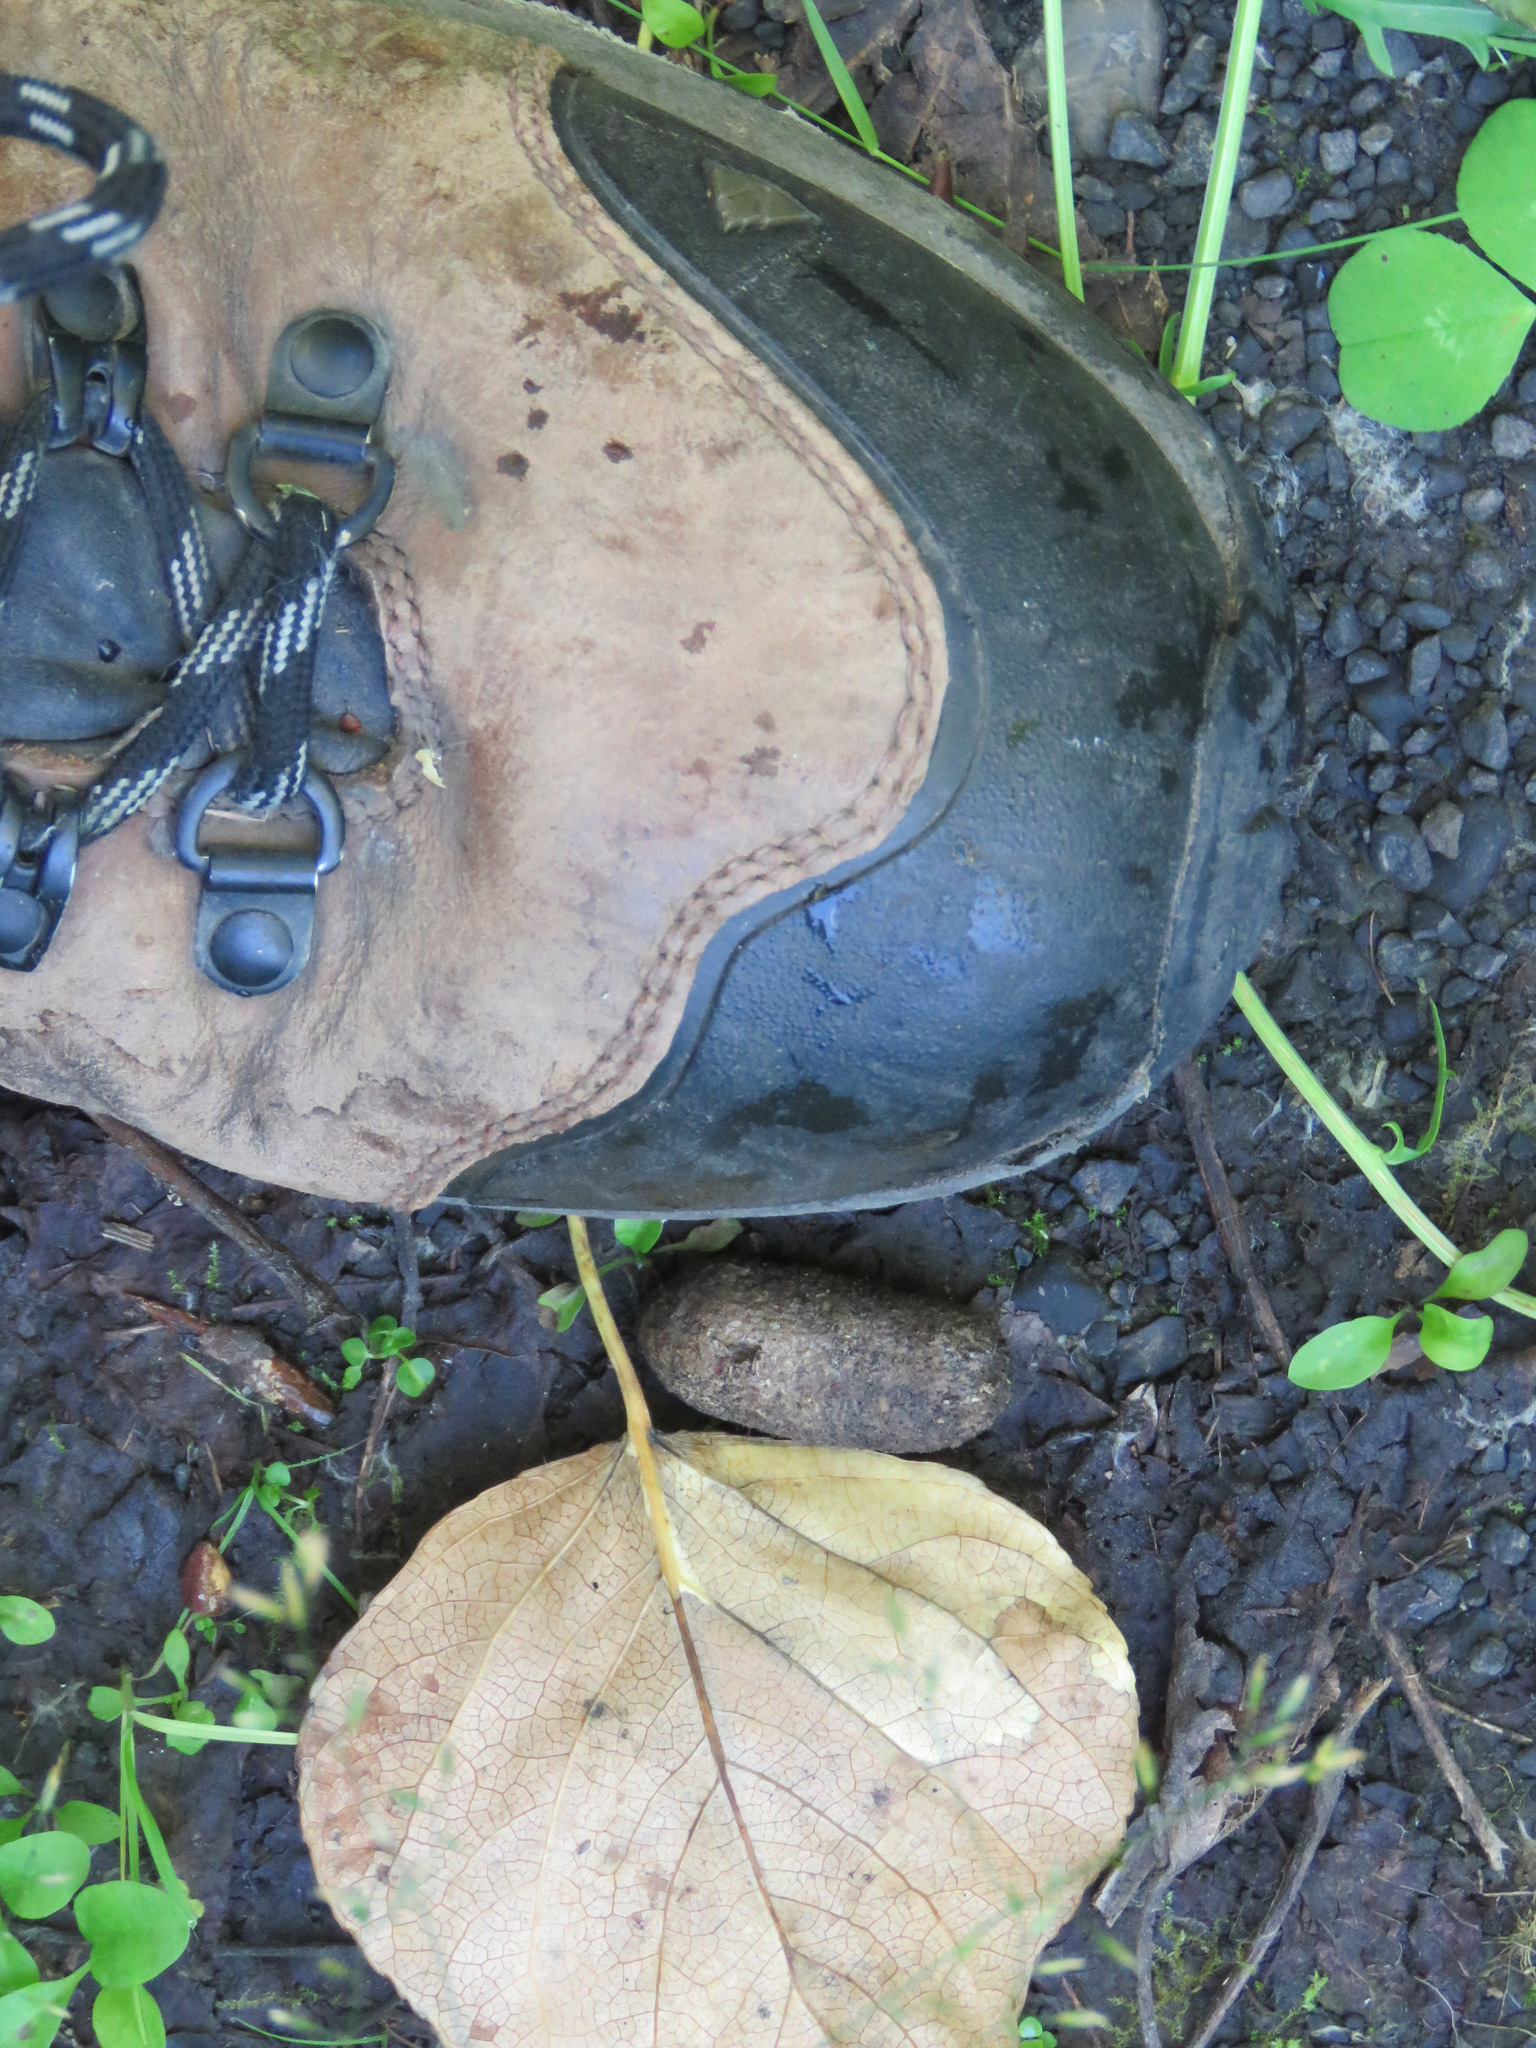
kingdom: Animalia
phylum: Chordata
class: Mammalia
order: Artiodactyla
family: Cervidae
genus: Alces
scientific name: Alces alces
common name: Moose
